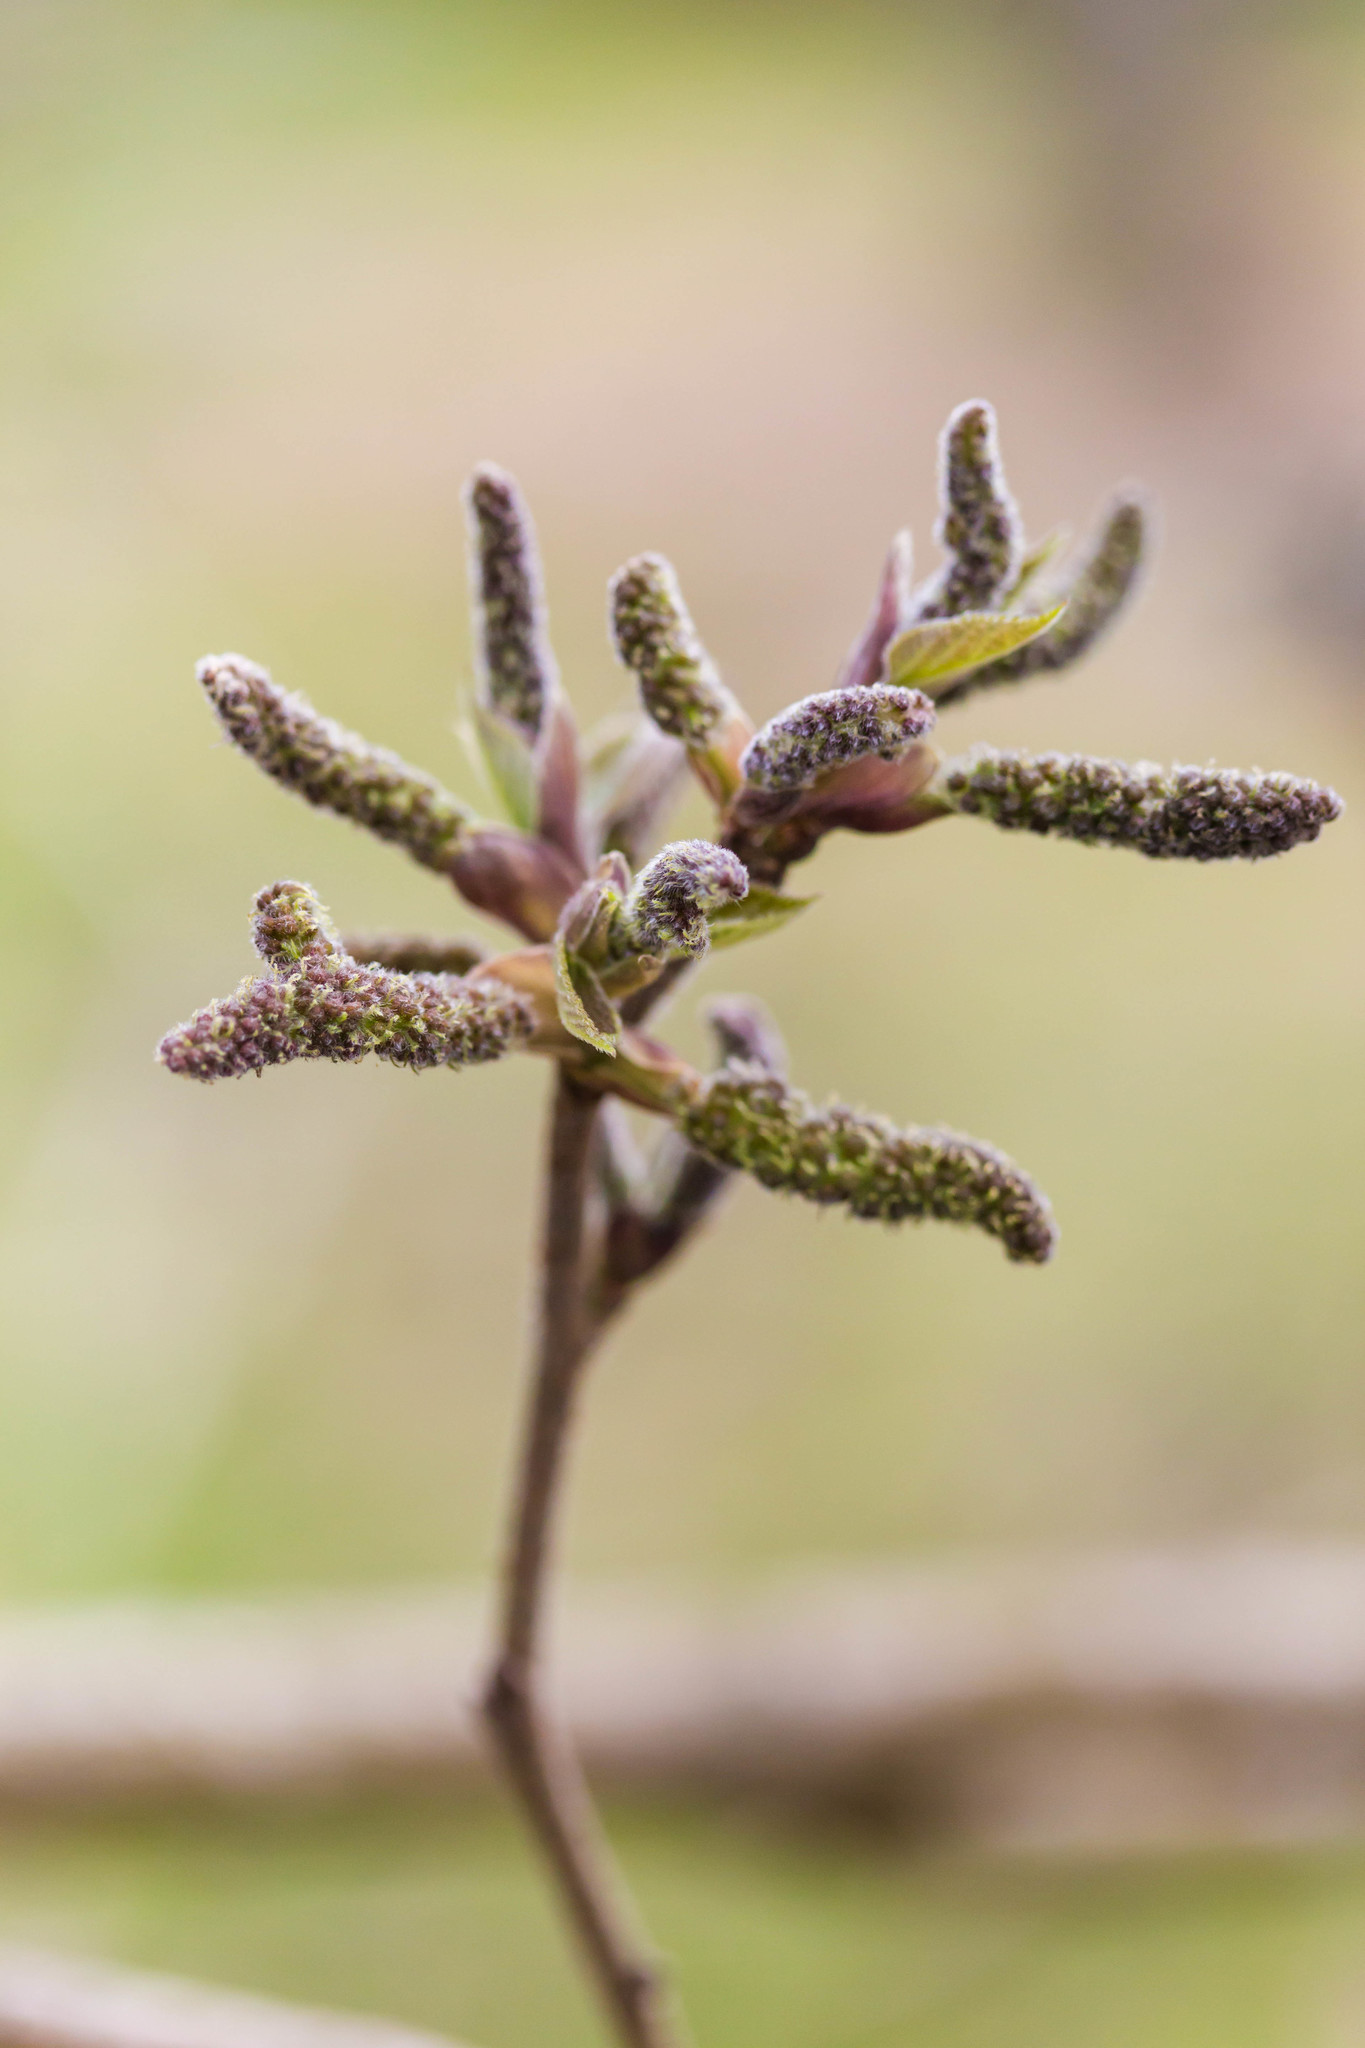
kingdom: Plantae
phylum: Tracheophyta
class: Magnoliopsida
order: Rosales
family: Moraceae
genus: Broussonetia
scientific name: Broussonetia papyrifera
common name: Paper mulberry
